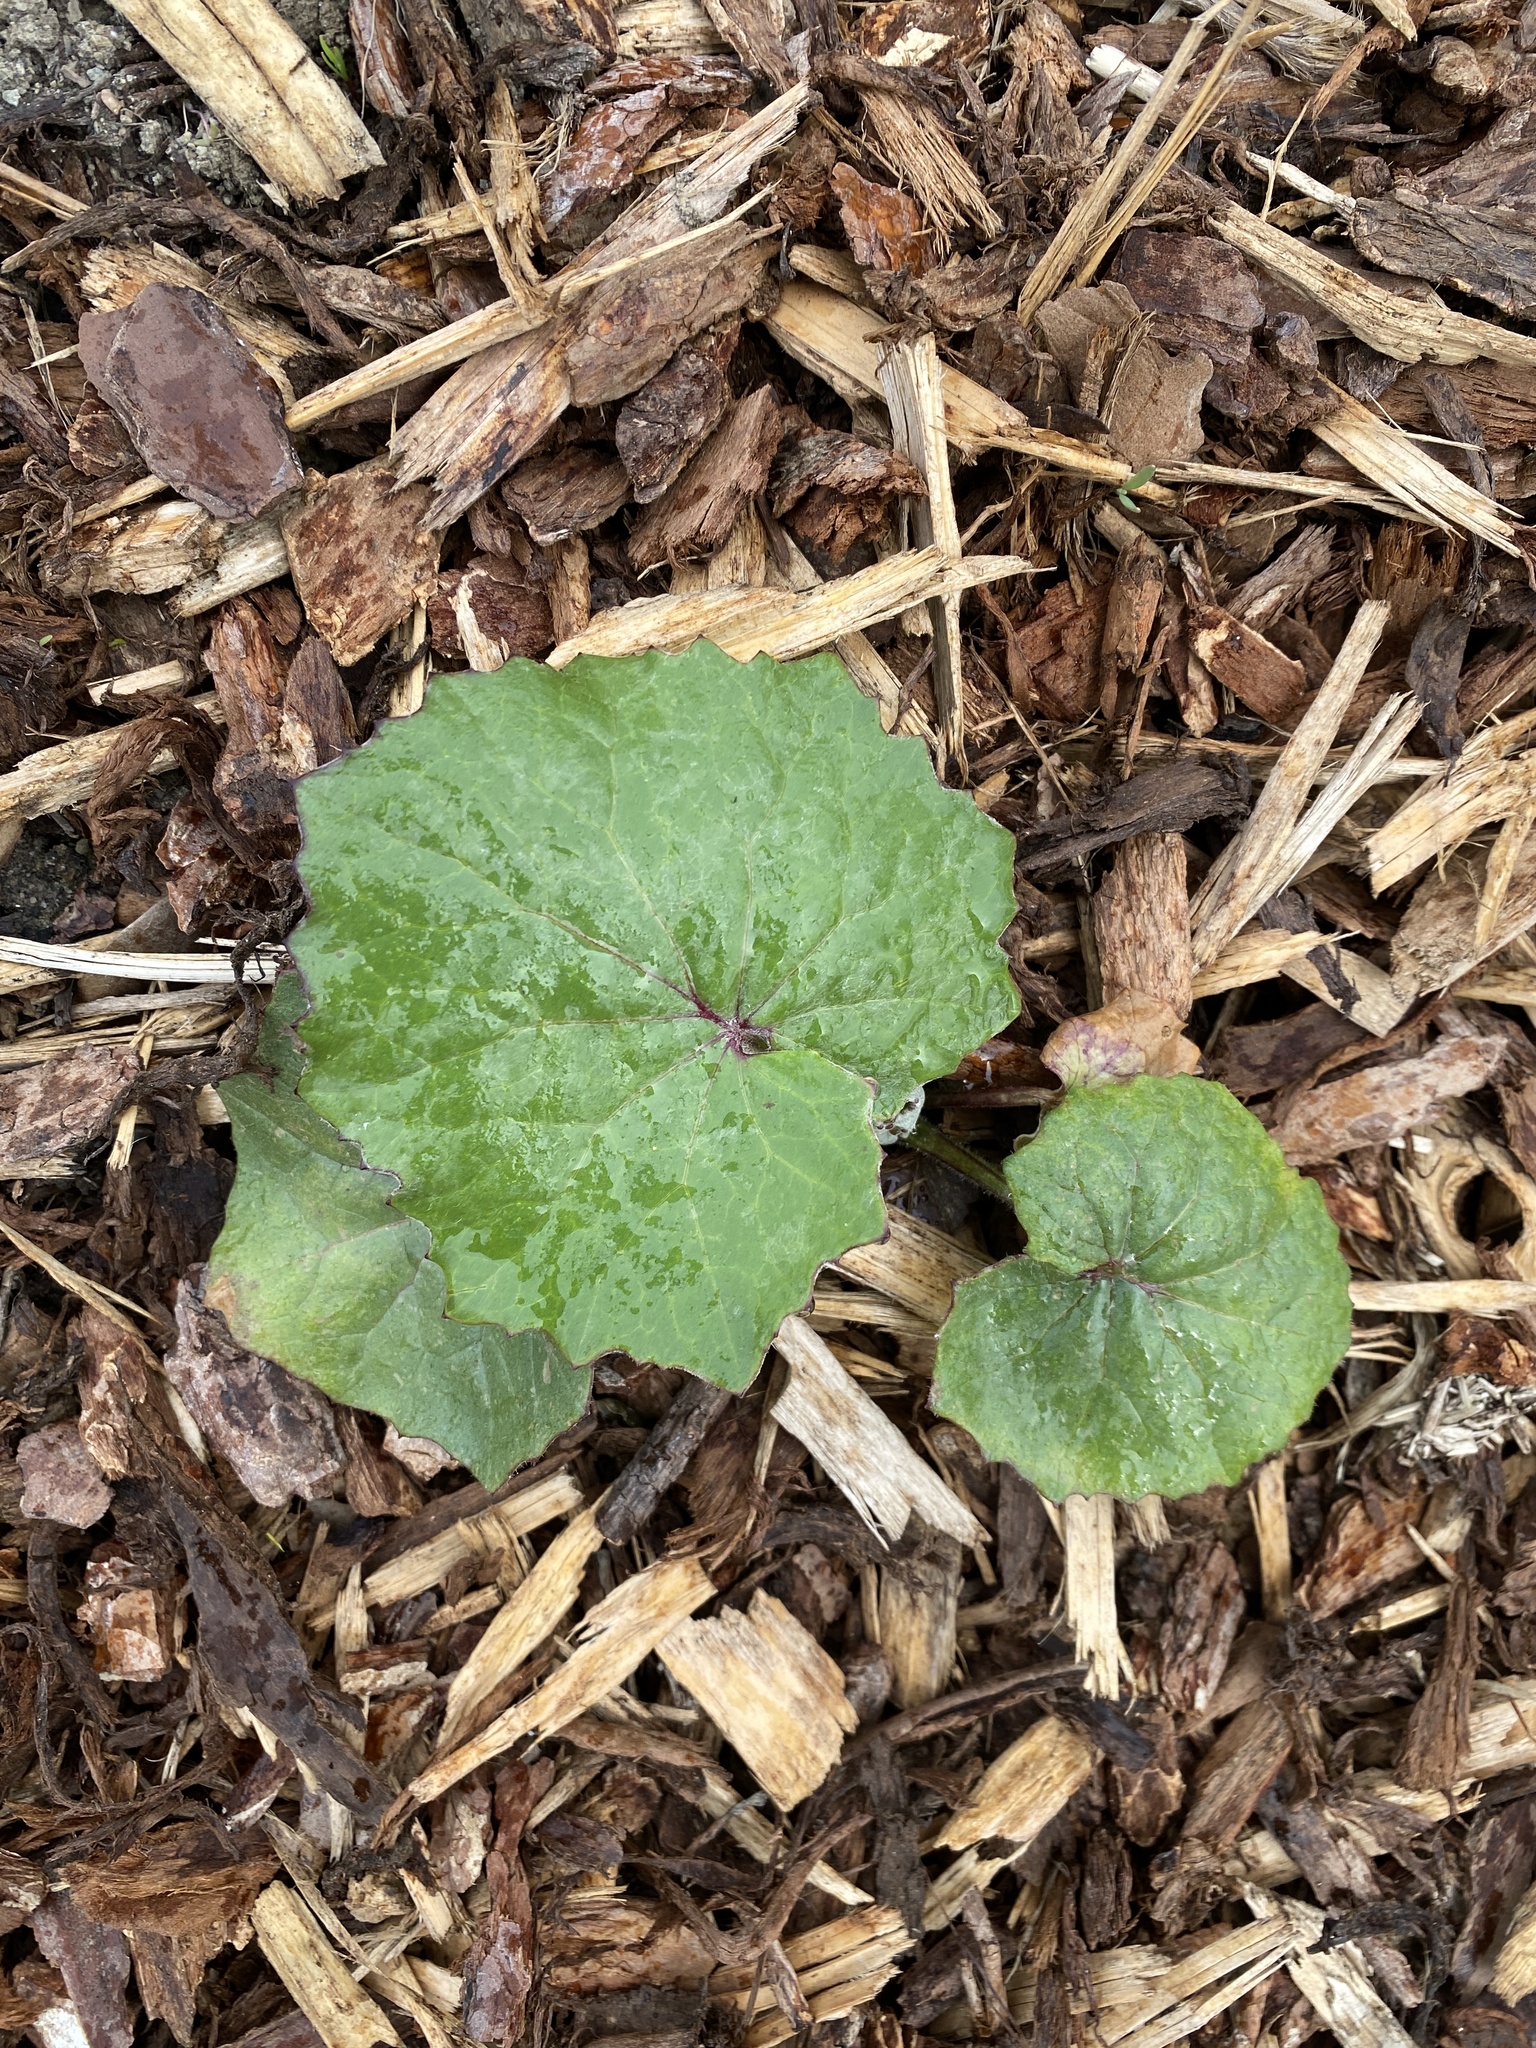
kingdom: Plantae
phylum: Tracheophyta
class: Magnoliopsida
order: Asterales
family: Asteraceae
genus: Tussilago
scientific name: Tussilago farfara
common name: Coltsfoot
